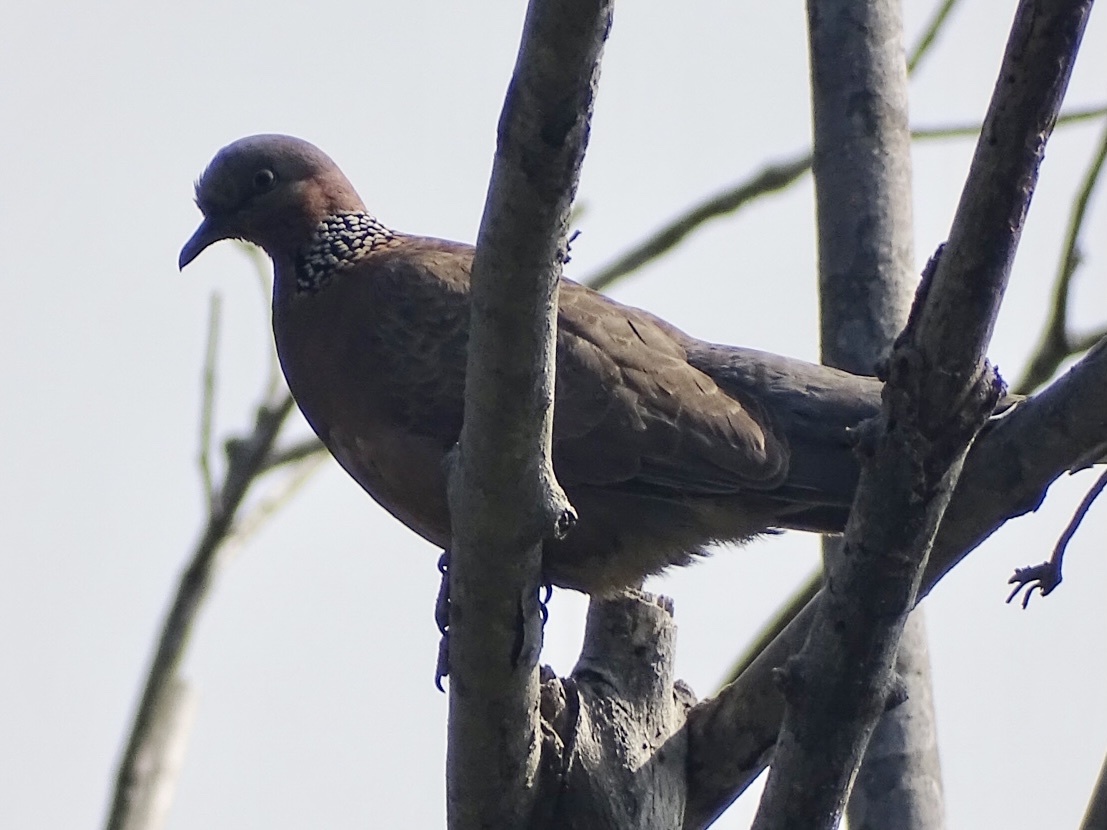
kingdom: Animalia
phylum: Chordata
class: Aves
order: Columbiformes
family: Columbidae
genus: Spilopelia
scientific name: Spilopelia chinensis
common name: Spotted dove
